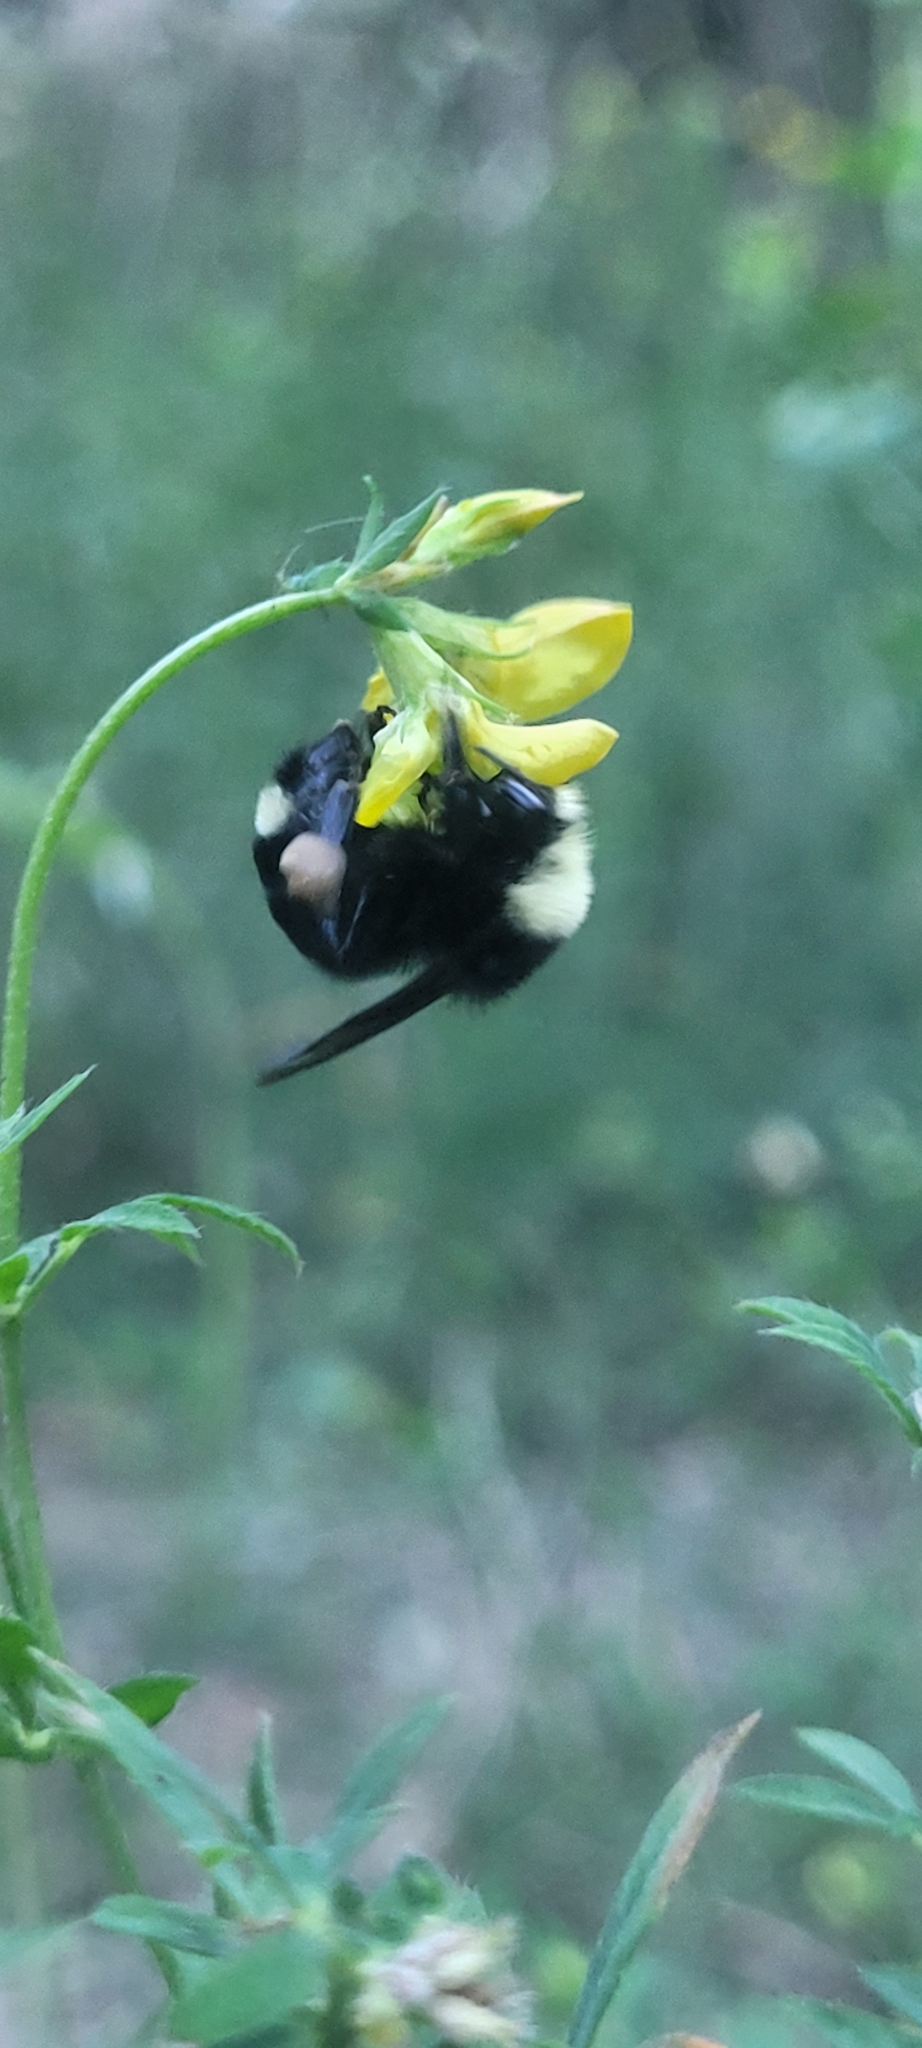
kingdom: Animalia
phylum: Arthropoda
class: Insecta
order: Hymenoptera
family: Apidae
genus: Bombus
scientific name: Bombus vosnesenskii
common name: Vosnesensky bumble bee
